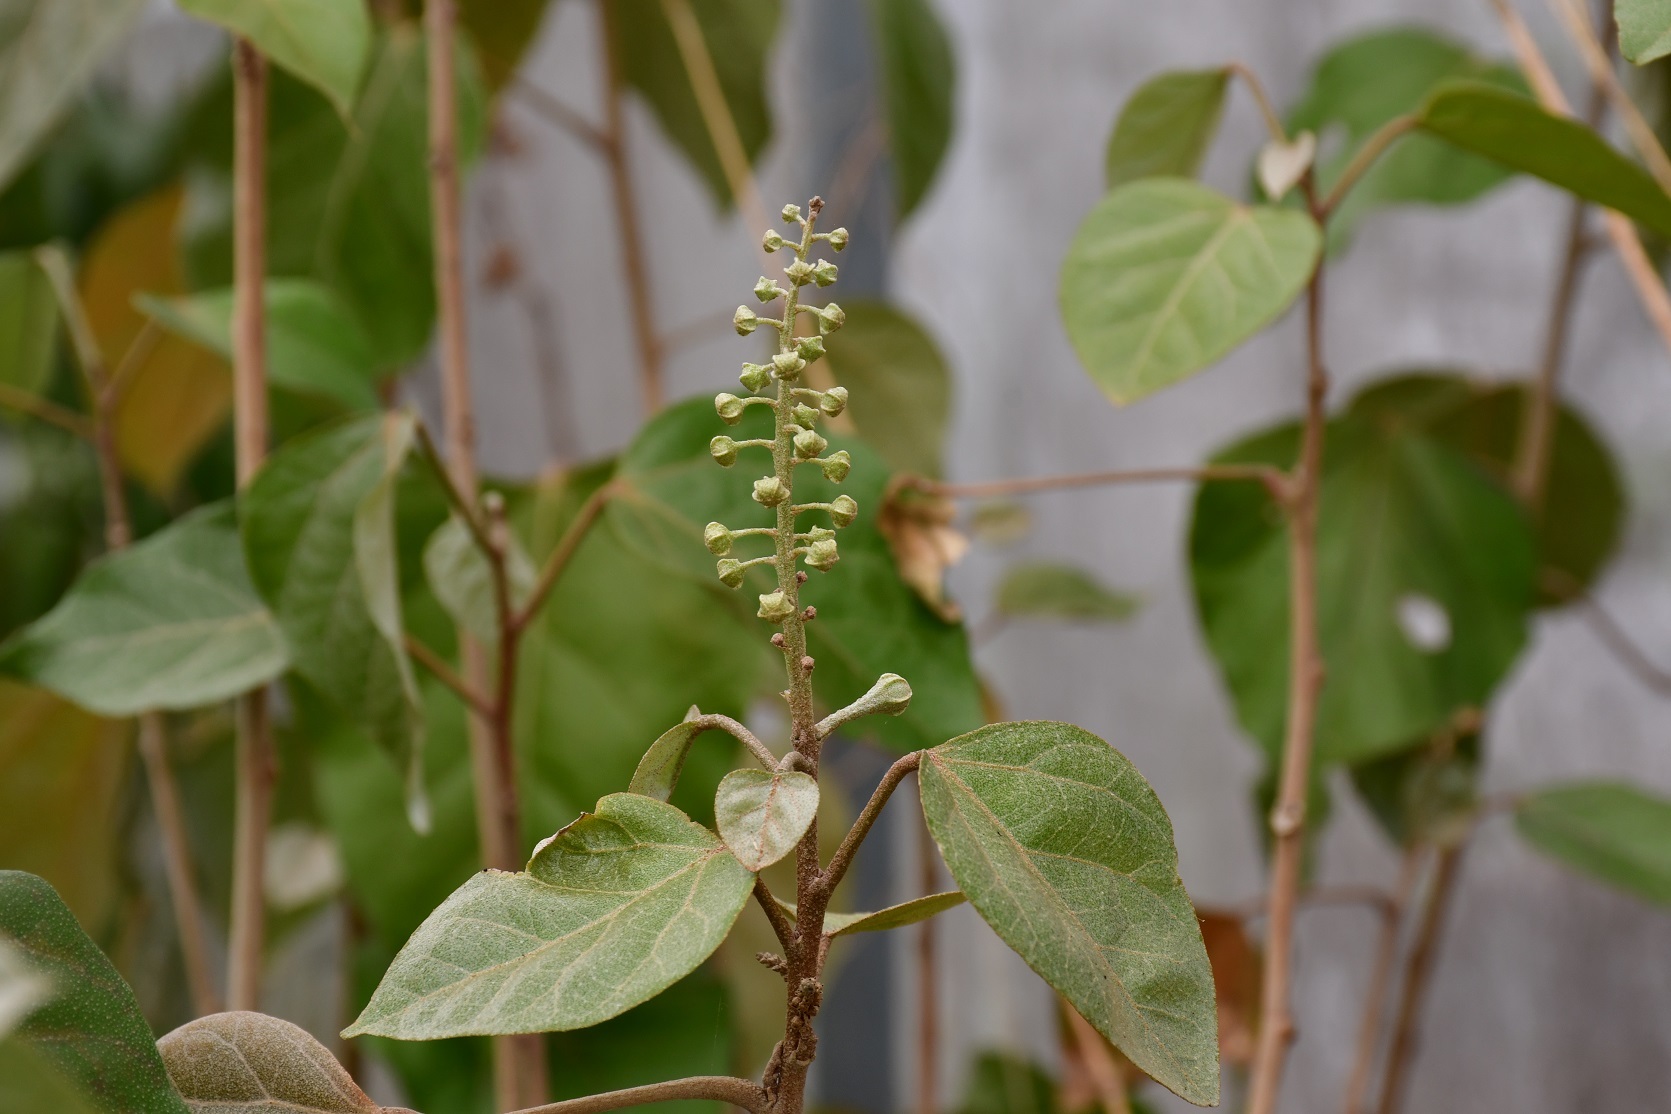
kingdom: Plantae
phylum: Tracheophyta
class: Magnoliopsida
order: Malpighiales
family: Euphorbiaceae
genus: Croton
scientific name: Croton guatemalensis
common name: Copalchi
